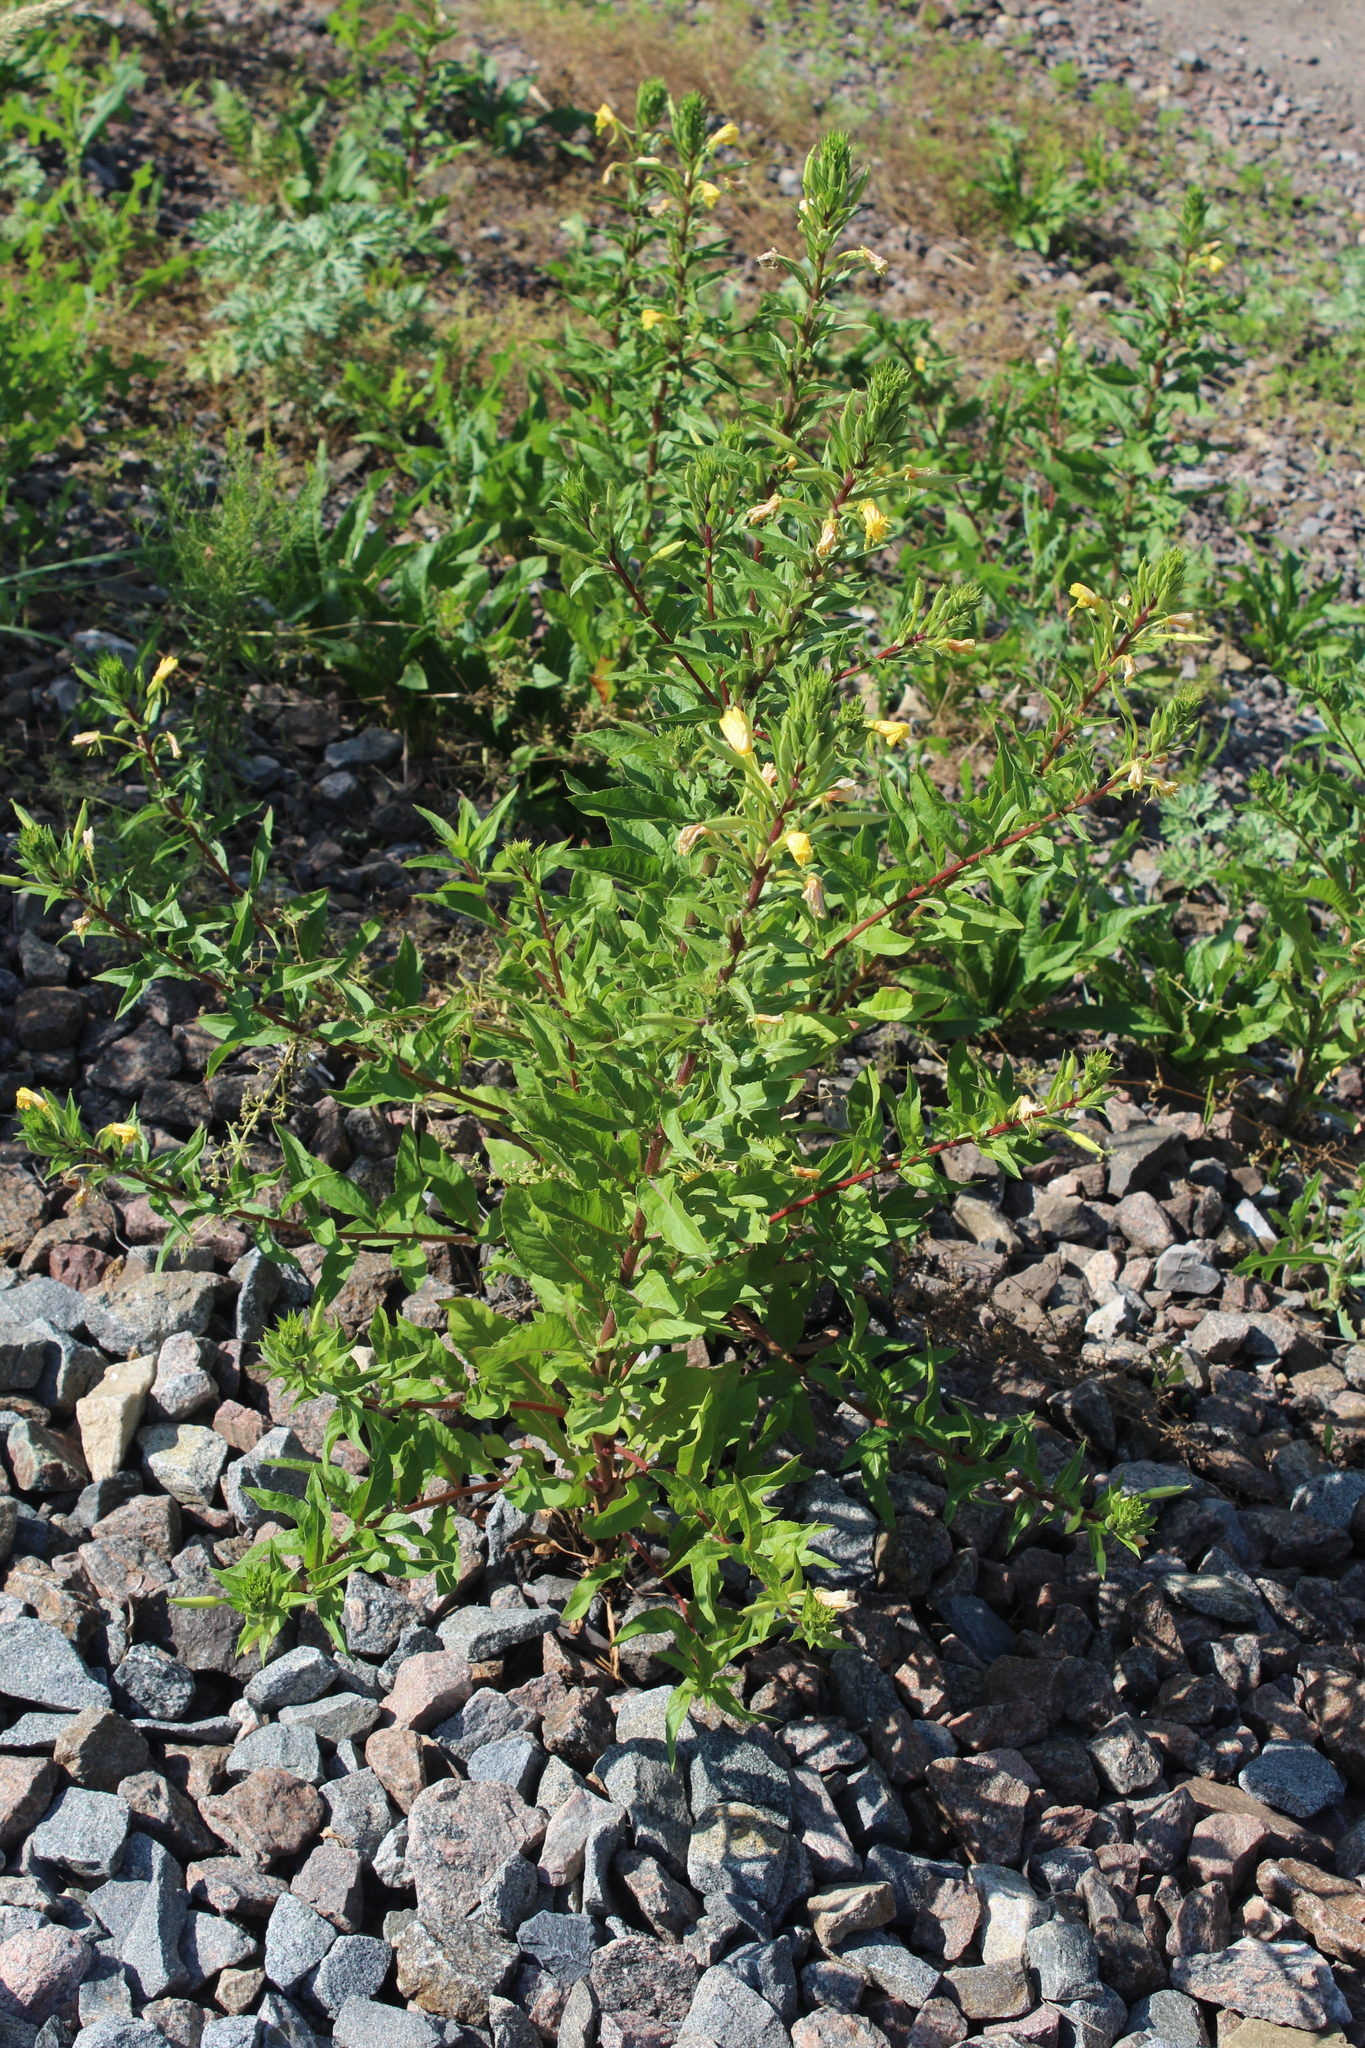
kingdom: Plantae
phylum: Tracheophyta
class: Magnoliopsida
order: Myrtales
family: Onagraceae
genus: Oenothera
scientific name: Oenothera rubricaulis
